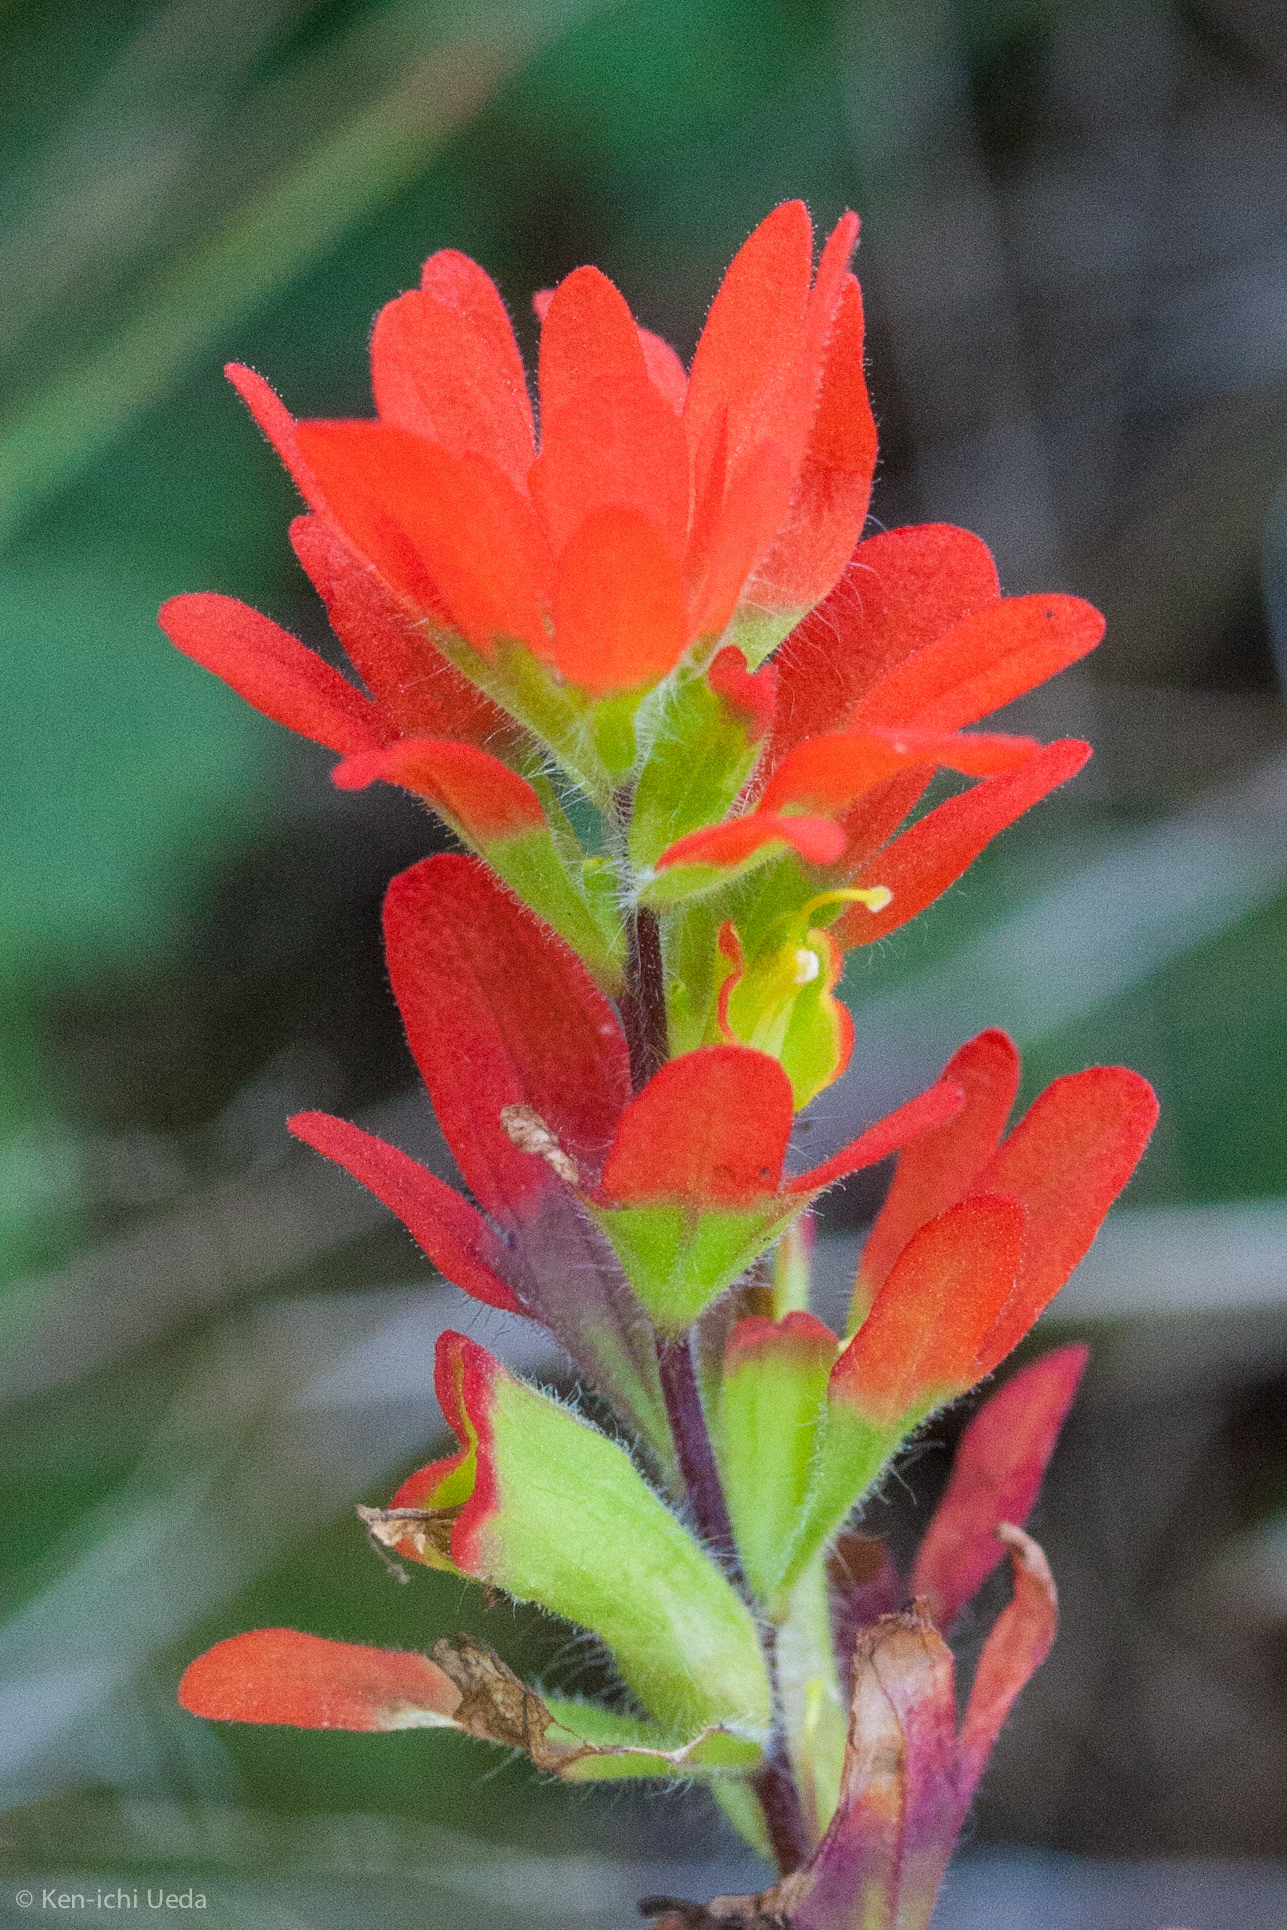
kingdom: Plantae
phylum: Tracheophyta
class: Magnoliopsida
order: Lamiales
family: Orobanchaceae
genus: Castilleja
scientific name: Castilleja coccinea
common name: Scarlet paintbrush
